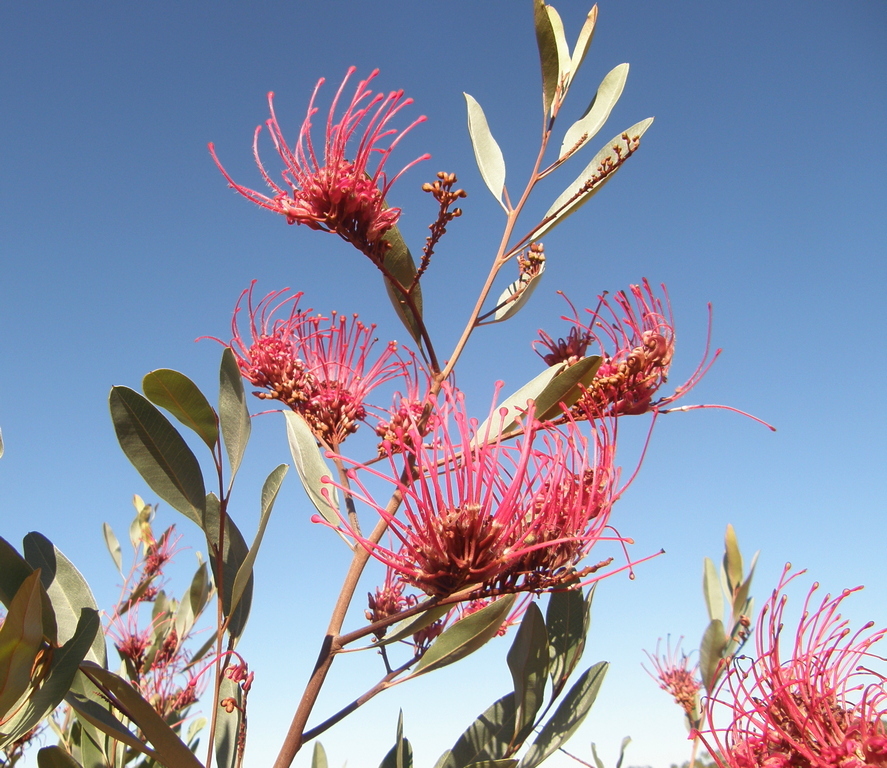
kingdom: Plantae
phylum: Tracheophyta
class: Magnoliopsida
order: Proteales
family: Proteaceae
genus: Grevillea
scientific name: Grevillea decora
